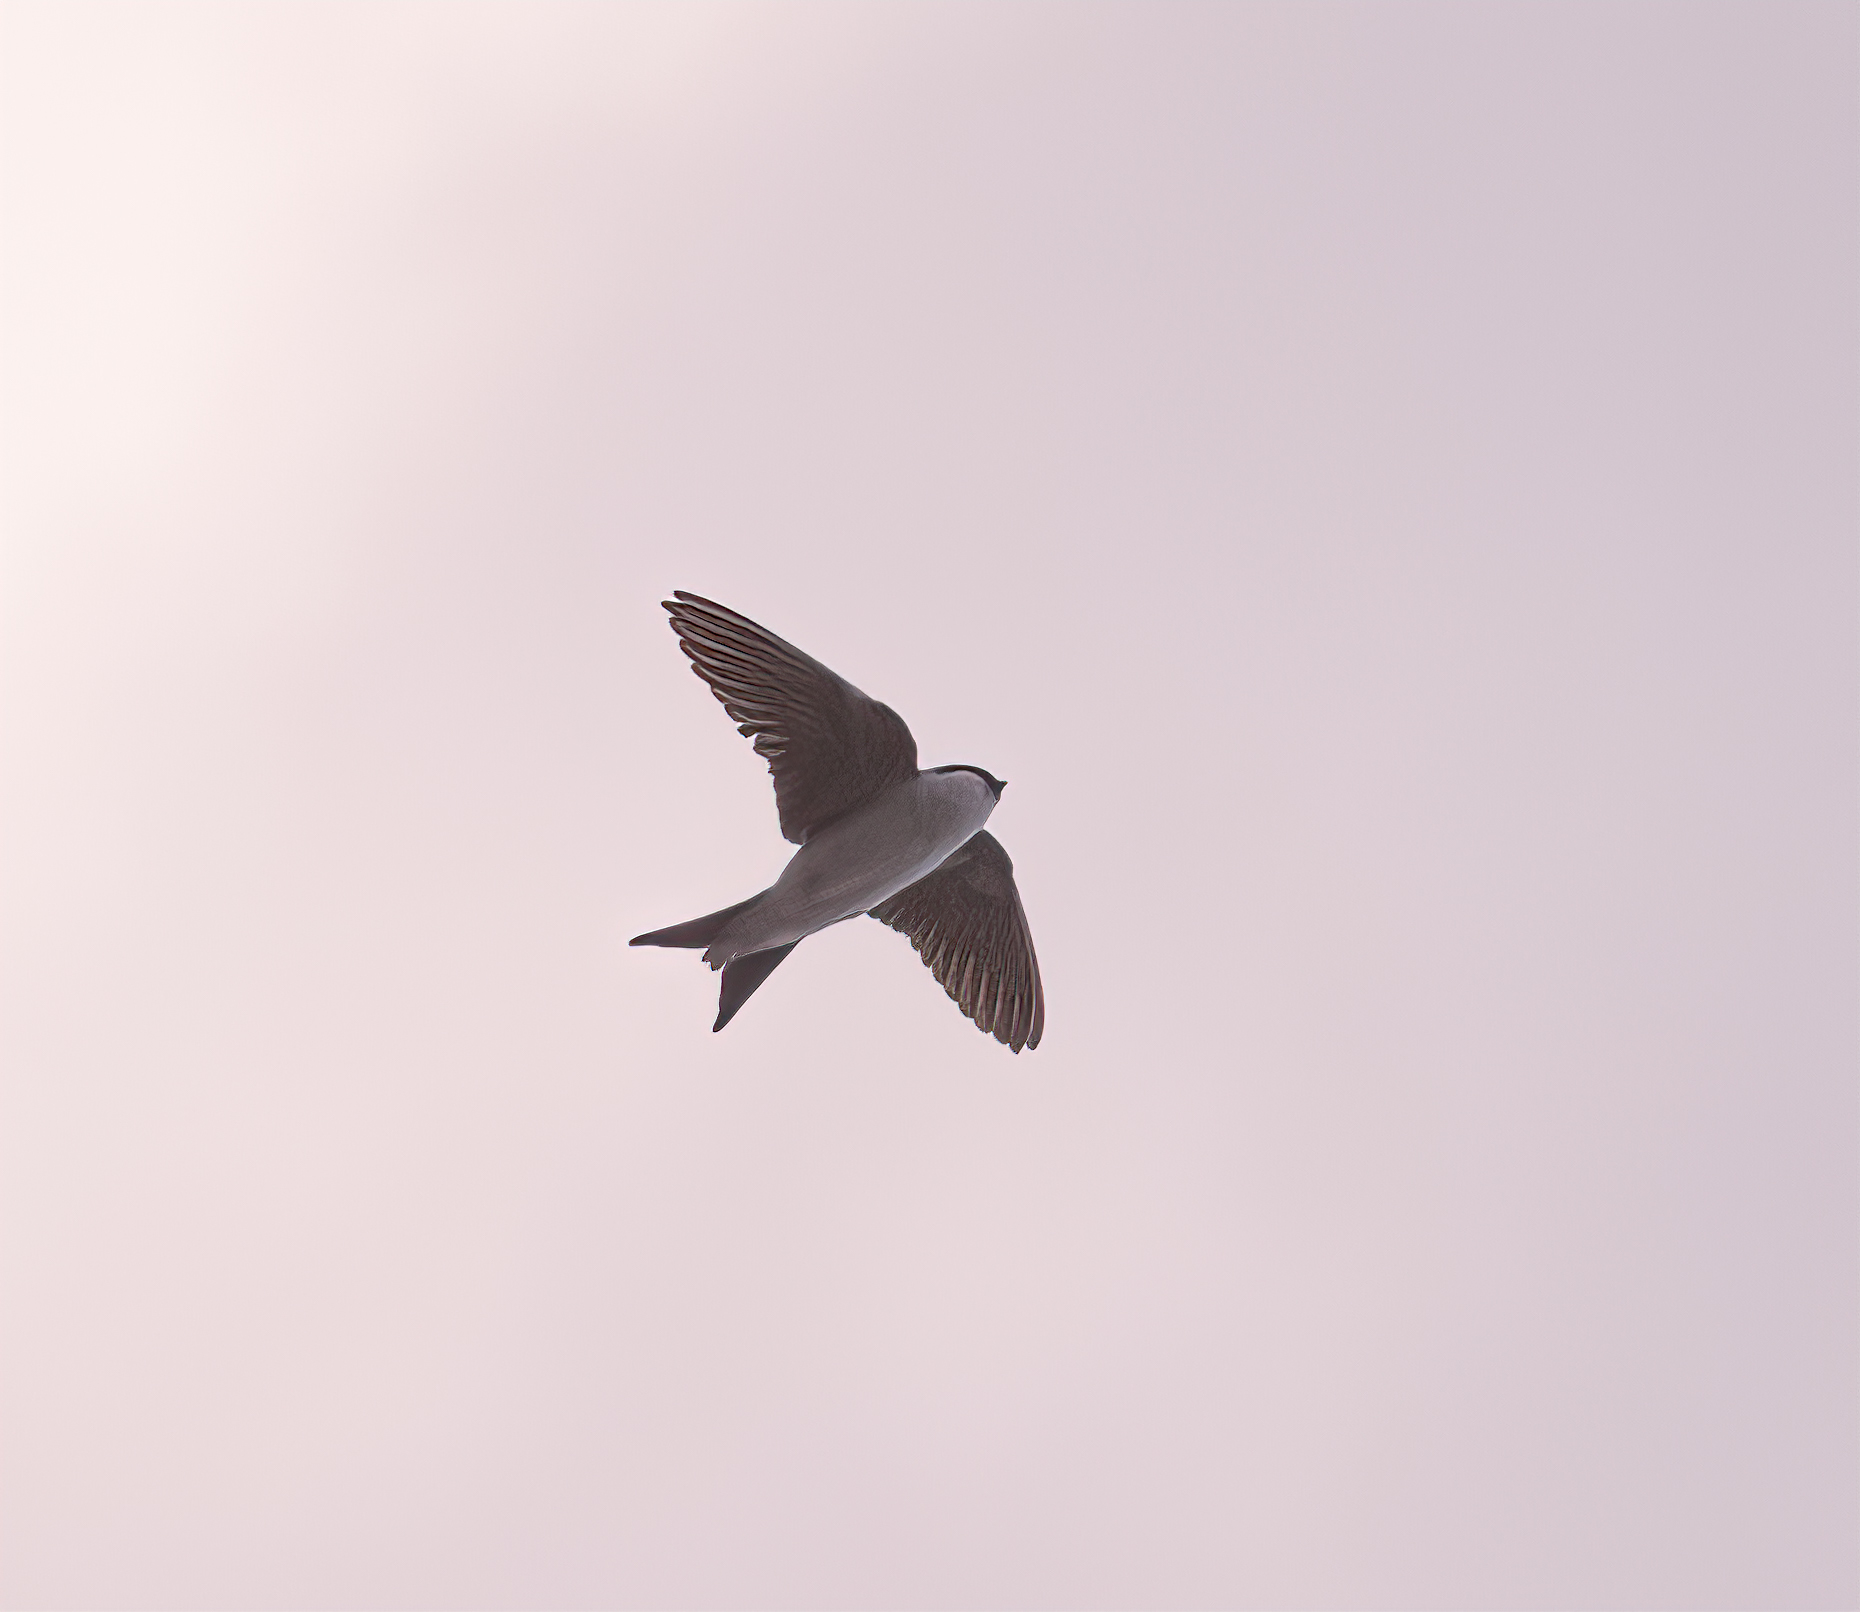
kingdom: Animalia
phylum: Chordata
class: Aves
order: Passeriformes
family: Hirundinidae
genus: Delichon
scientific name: Delichon urbicum
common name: Common house martin
